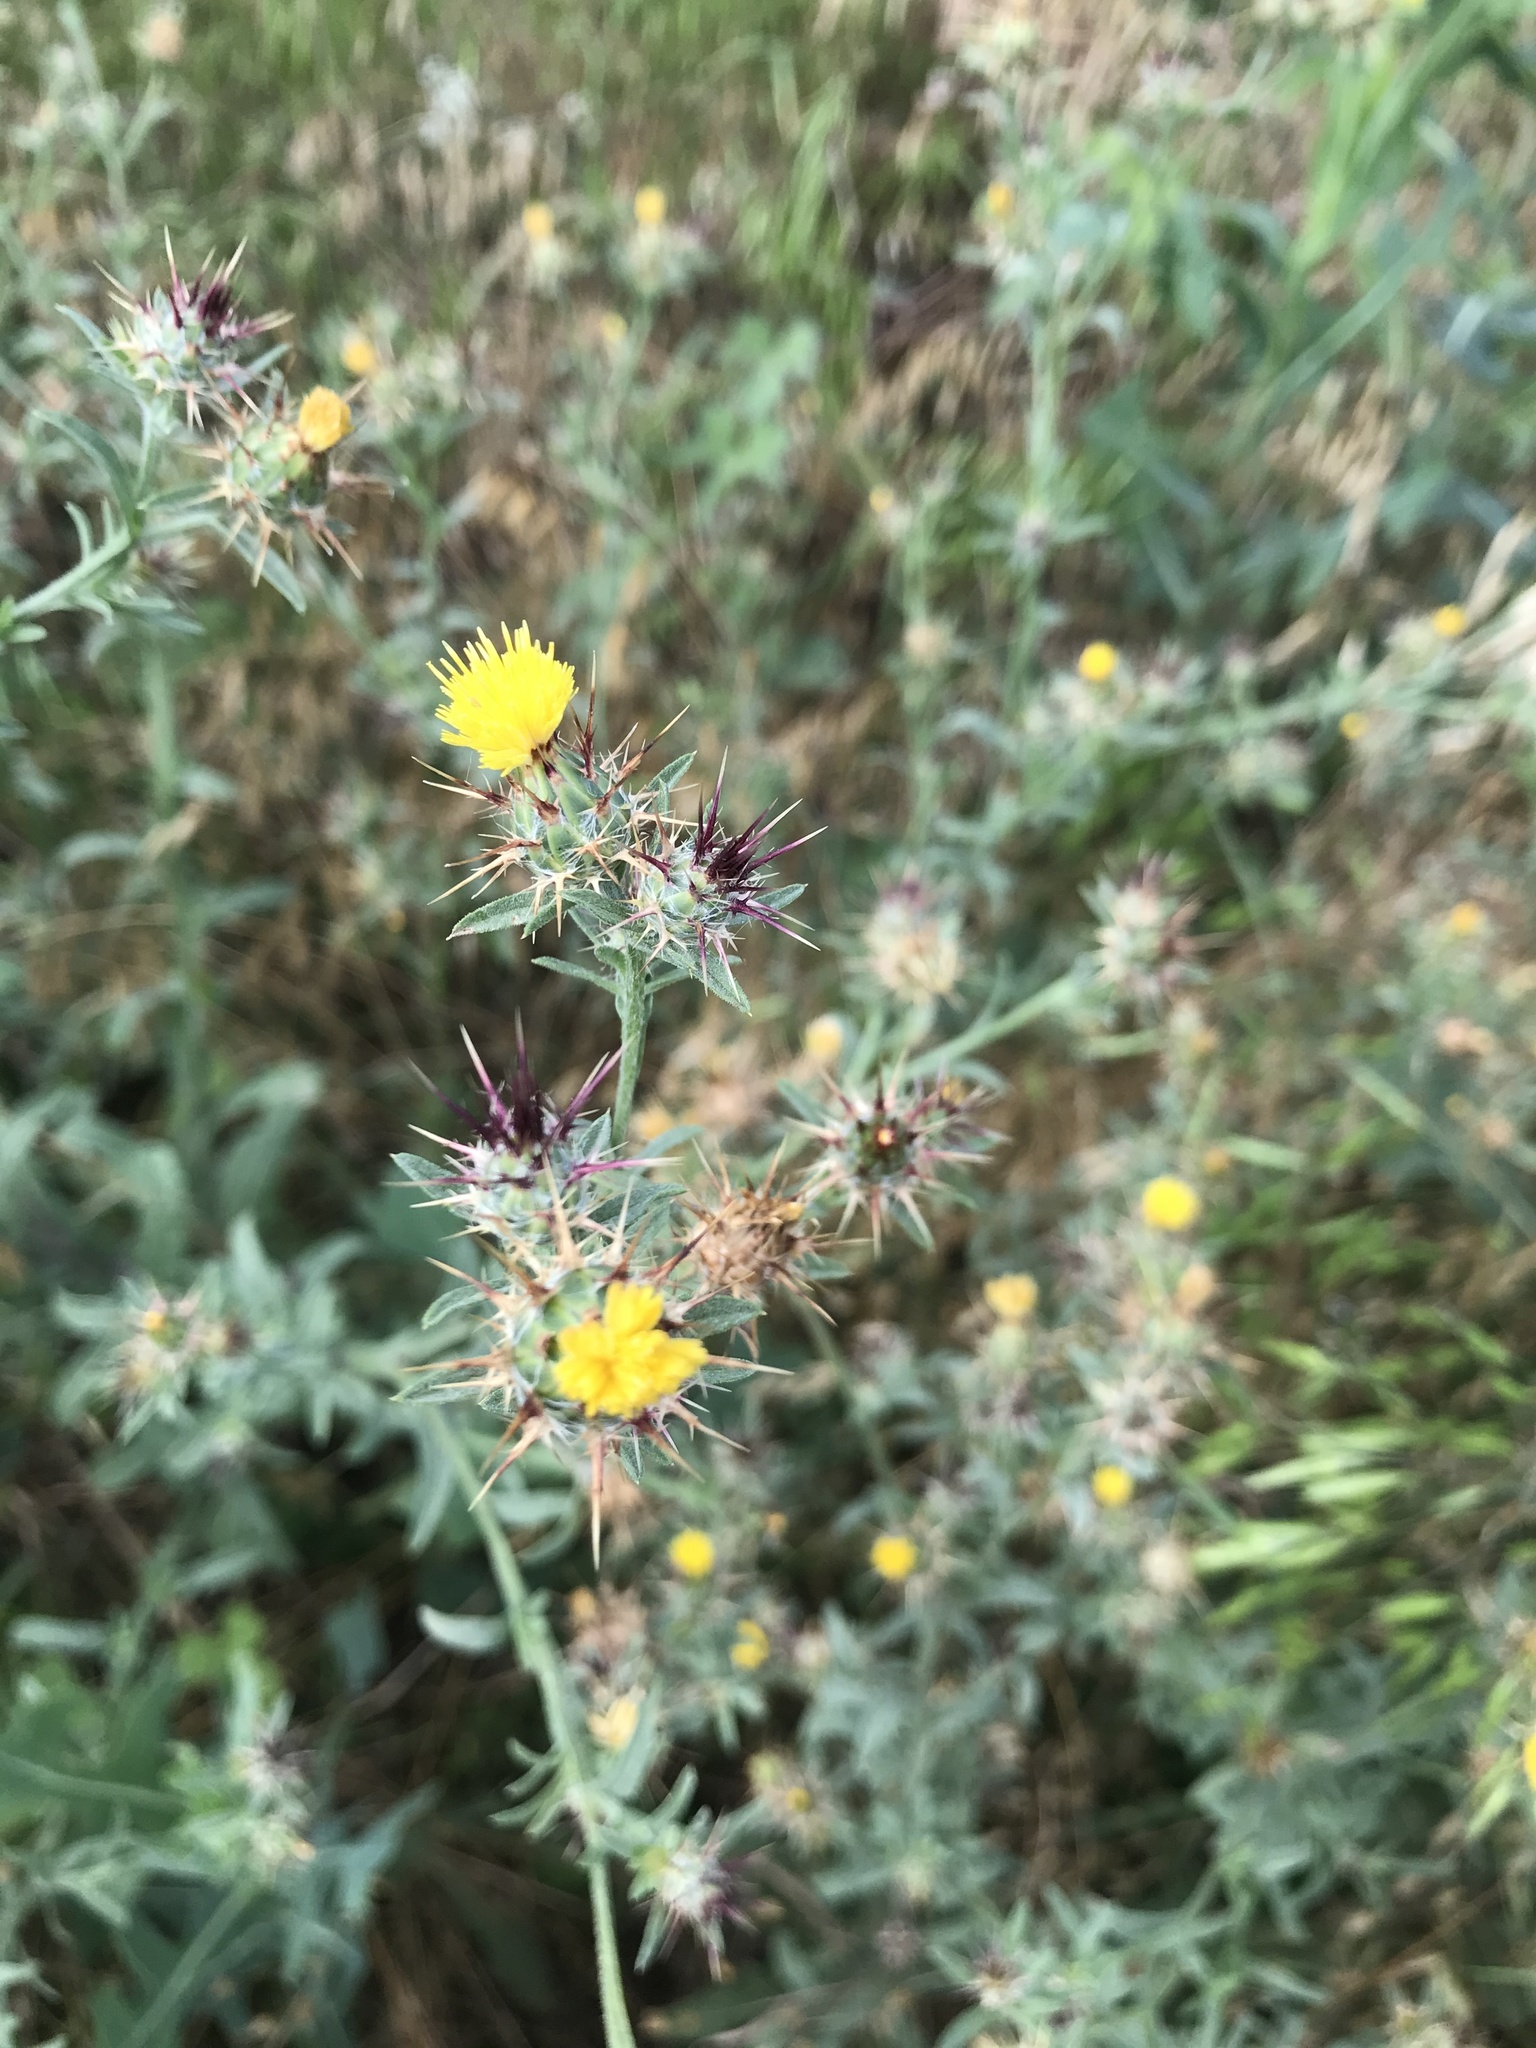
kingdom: Plantae
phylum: Tracheophyta
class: Magnoliopsida
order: Asterales
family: Asteraceae
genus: Centaurea
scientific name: Centaurea melitensis
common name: Maltese star-thistle
